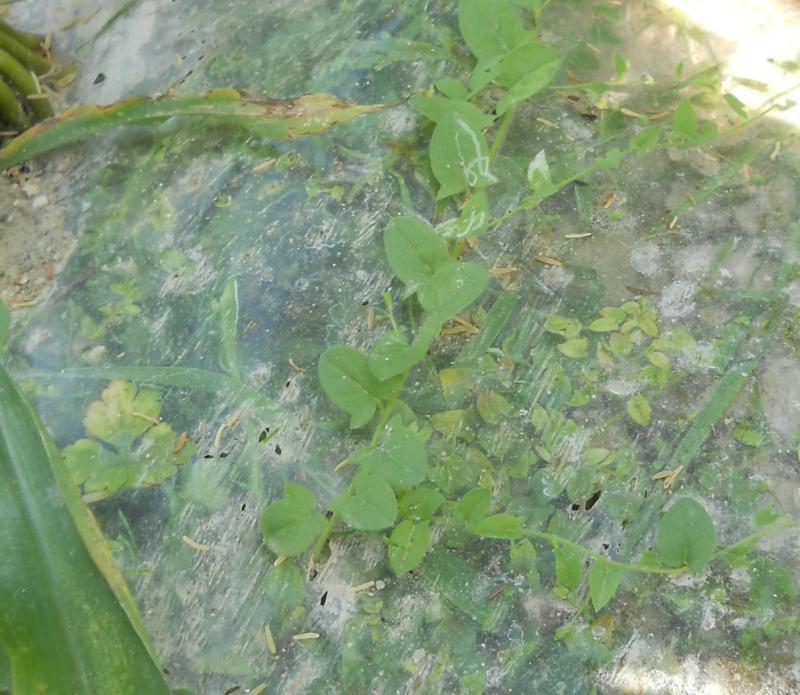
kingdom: Plantae
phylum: Tracheophyta
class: Magnoliopsida
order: Lamiales
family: Plantaginaceae
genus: Kickxia
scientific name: Kickxia elatine
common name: Sharp-leaved fluellen
